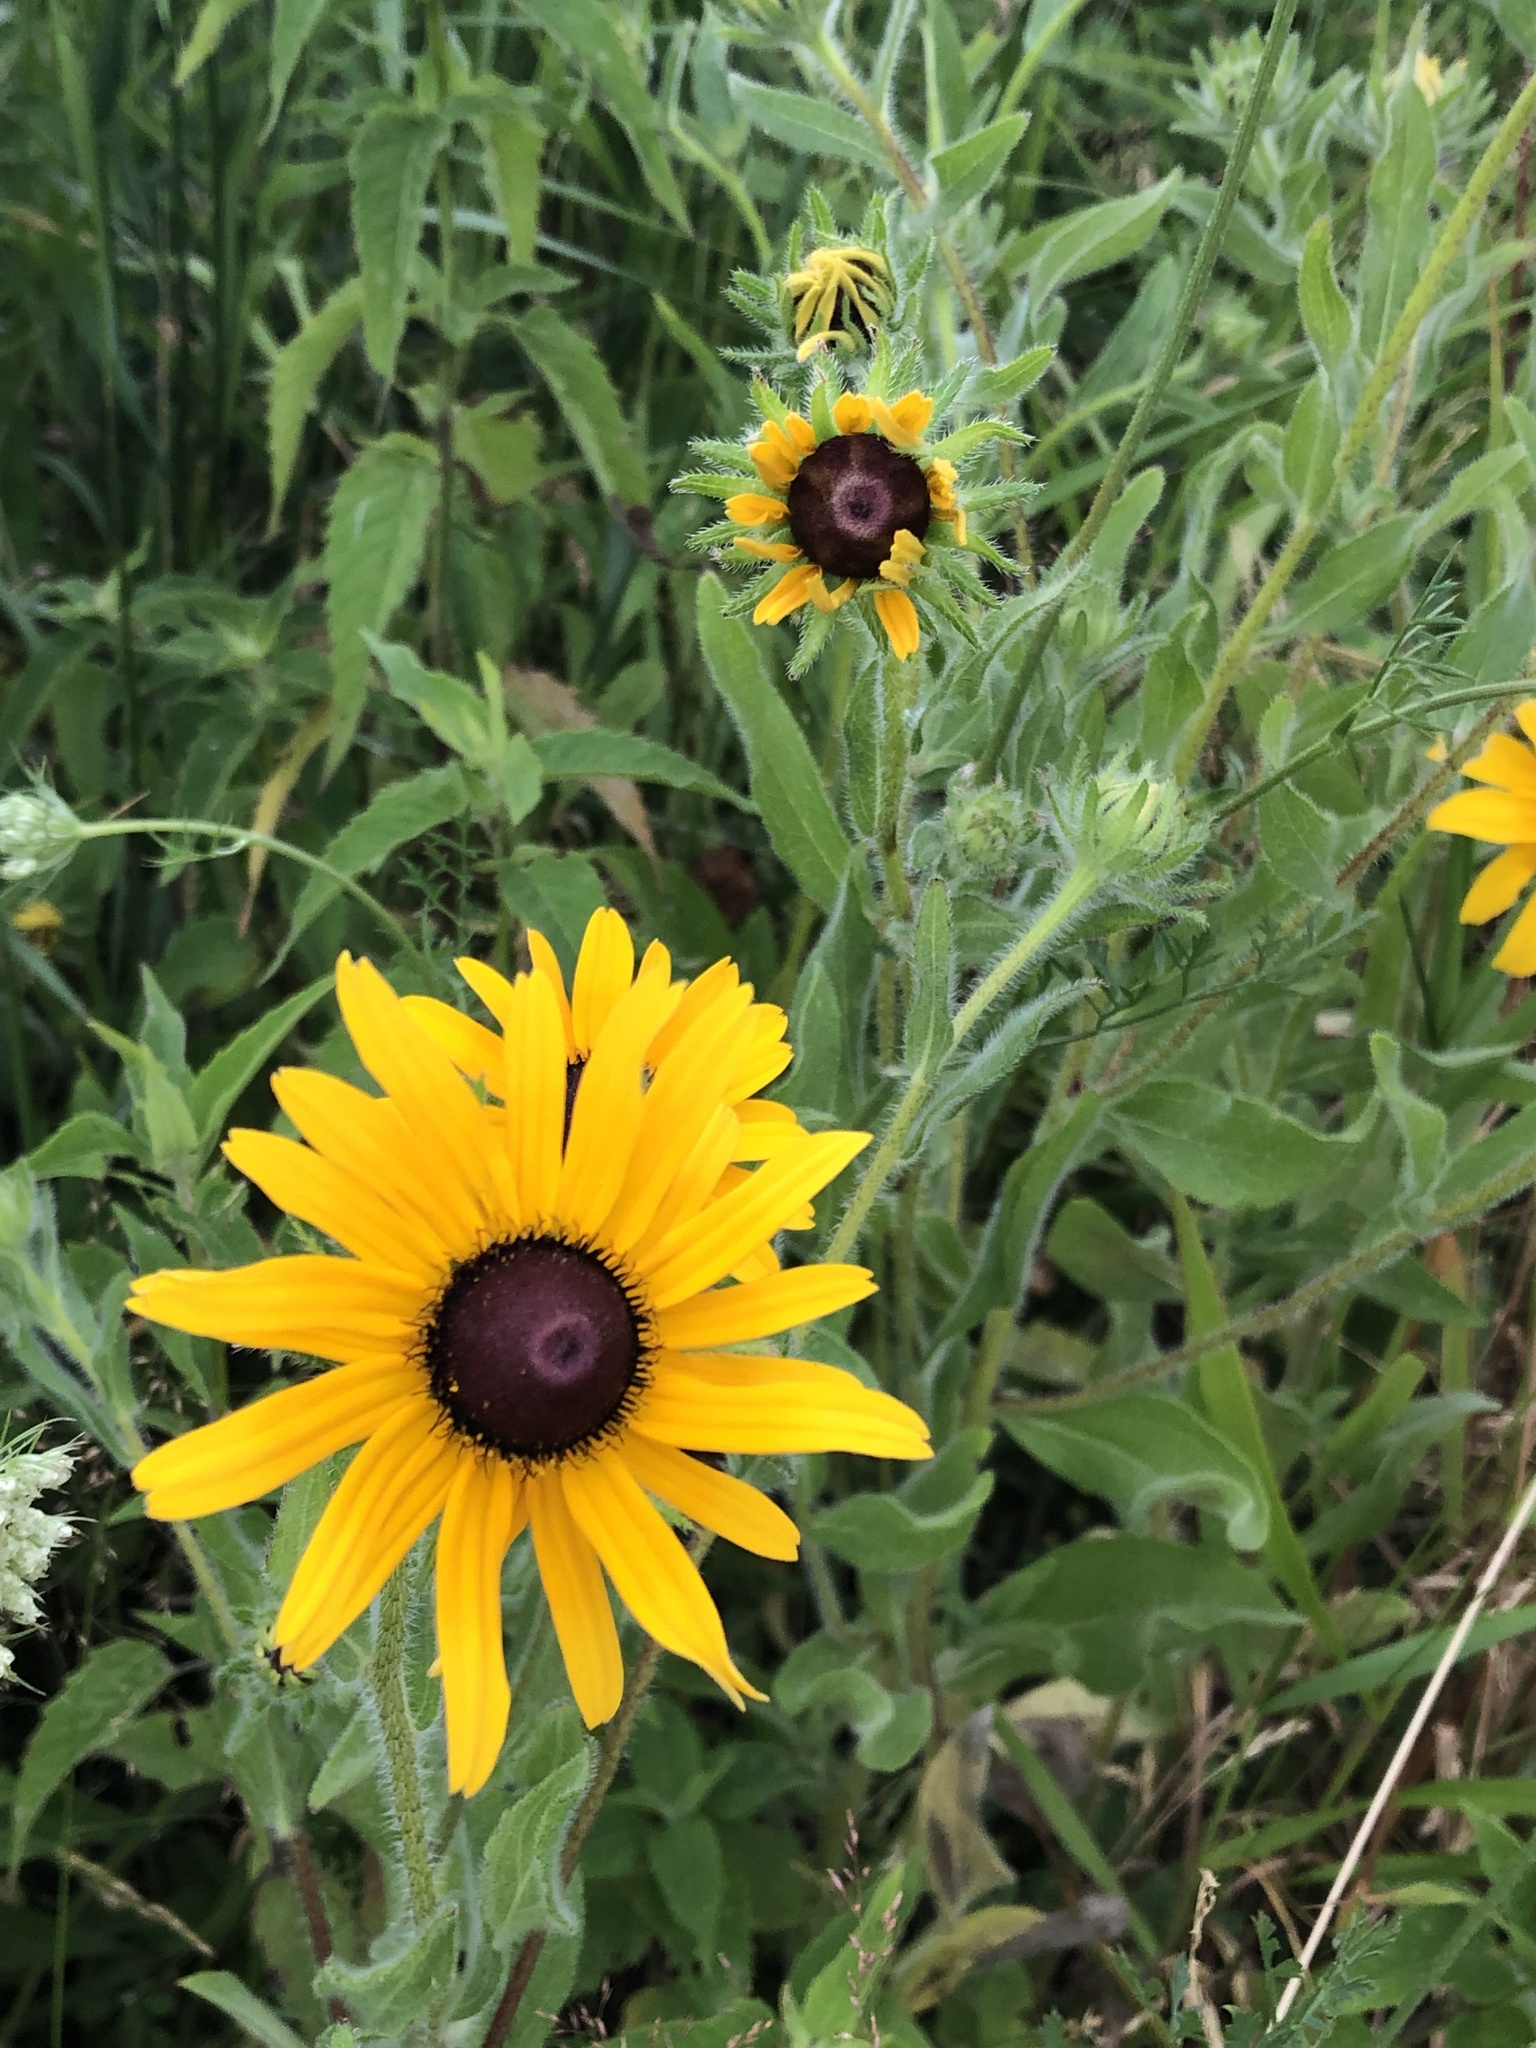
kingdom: Plantae
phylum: Tracheophyta
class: Magnoliopsida
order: Asterales
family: Asteraceae
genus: Rudbeckia
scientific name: Rudbeckia hirta
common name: Black-eyed-susan
